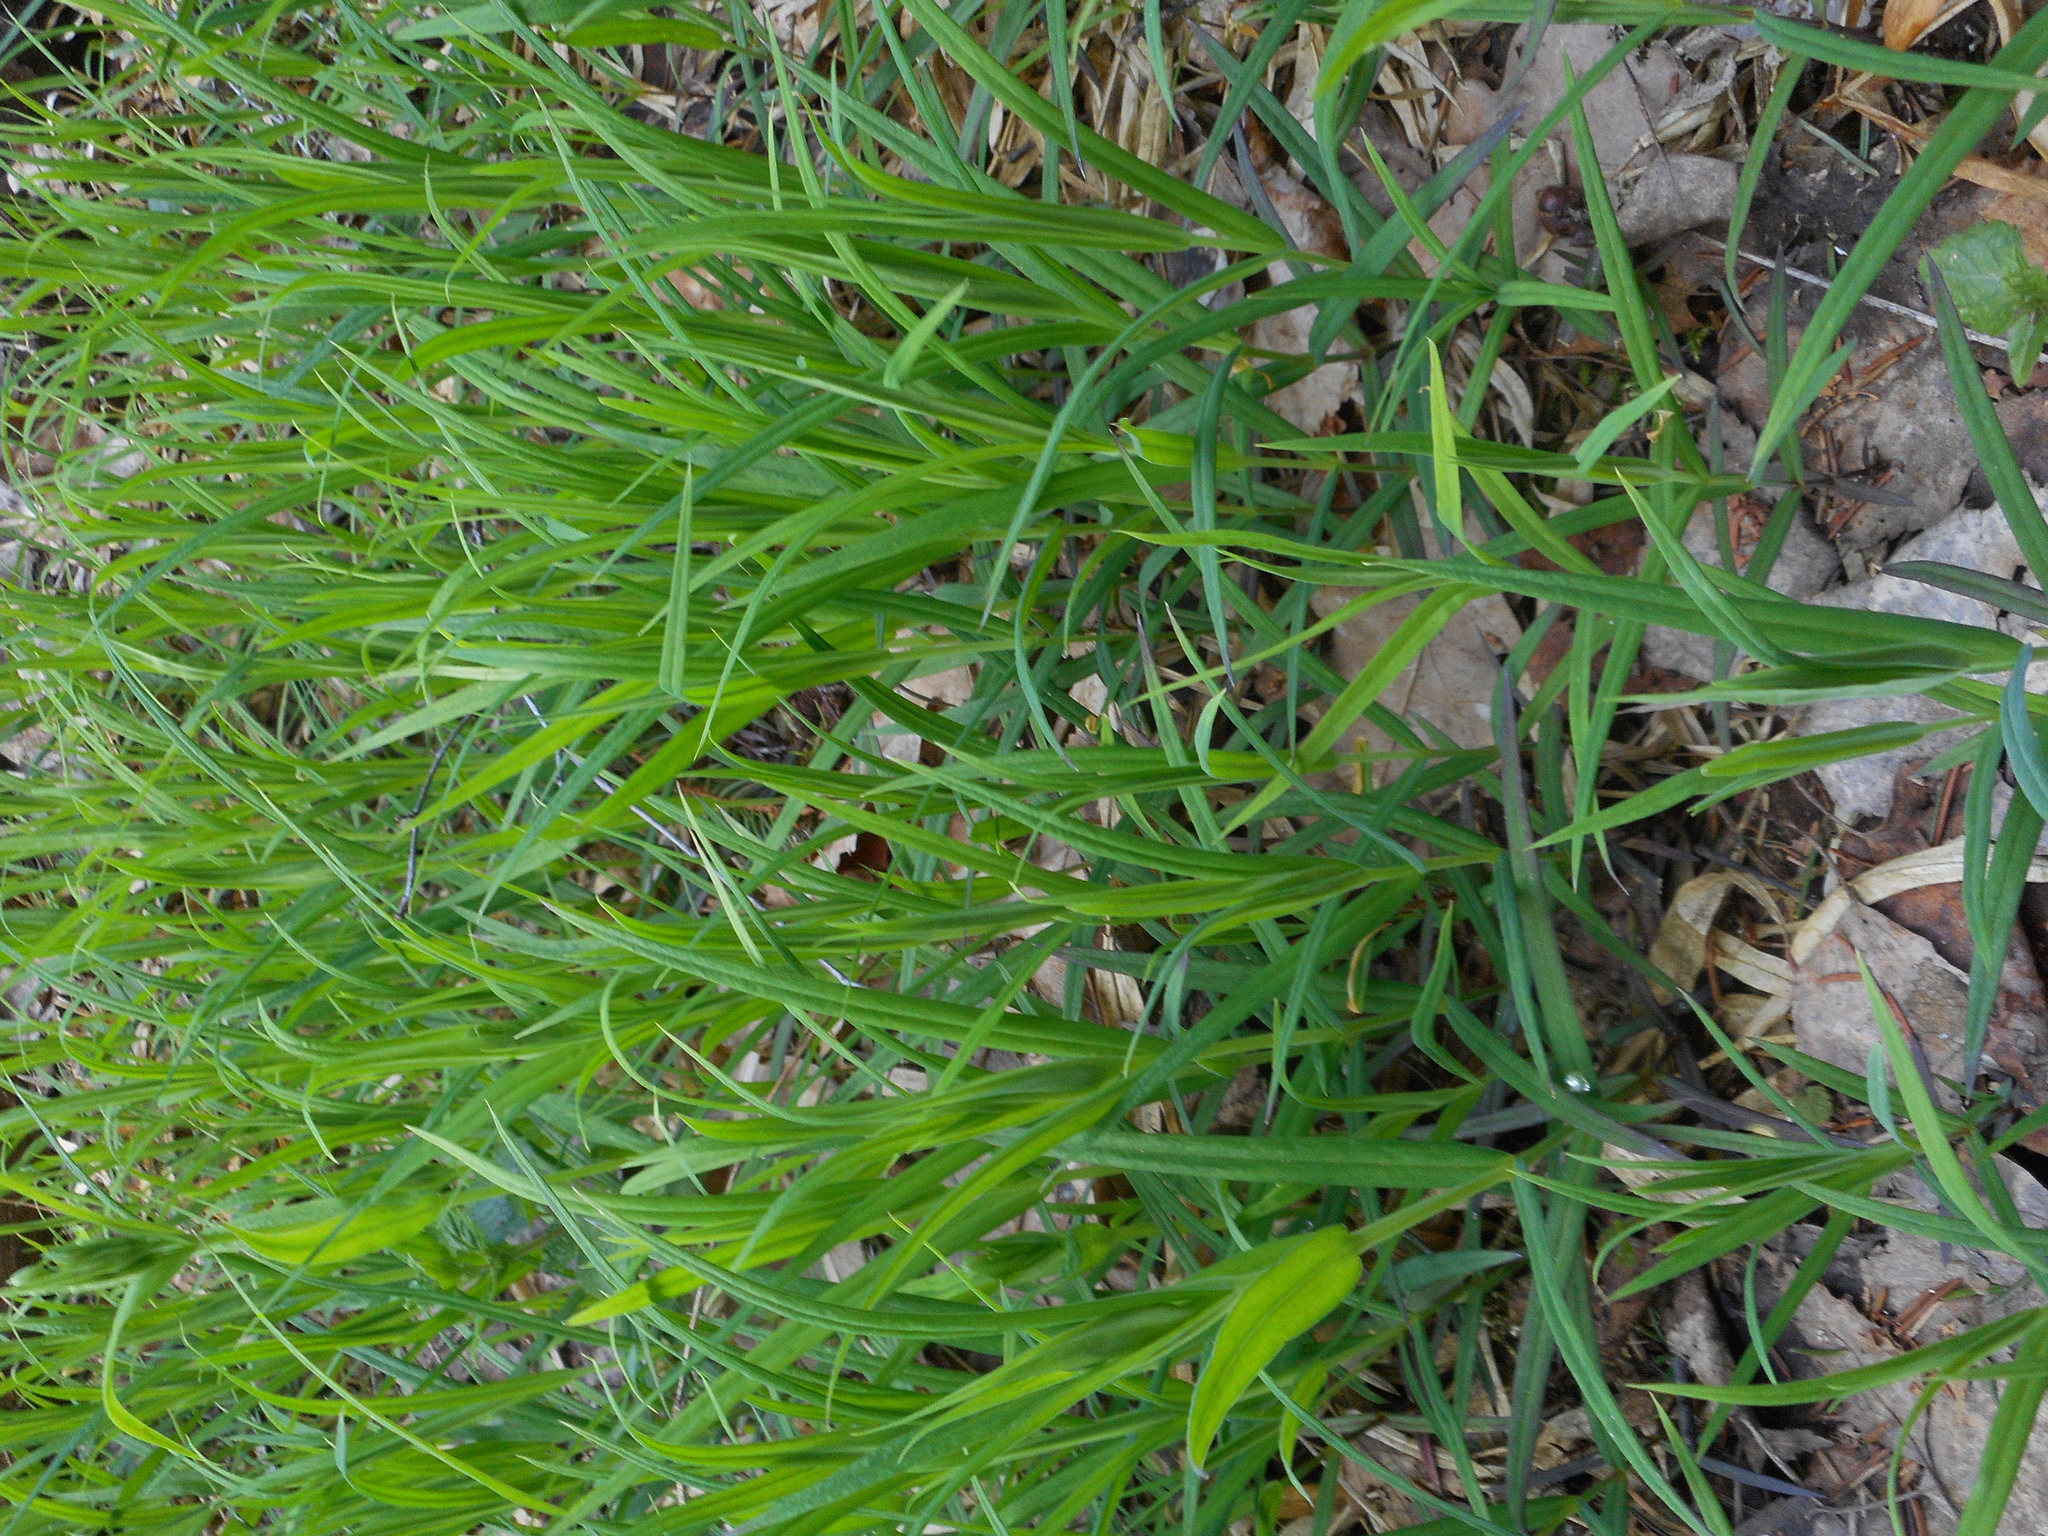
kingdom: Plantae
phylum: Tracheophyta
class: Magnoliopsida
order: Caryophyllales
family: Caryophyllaceae
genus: Rabelera
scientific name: Rabelera holostea
